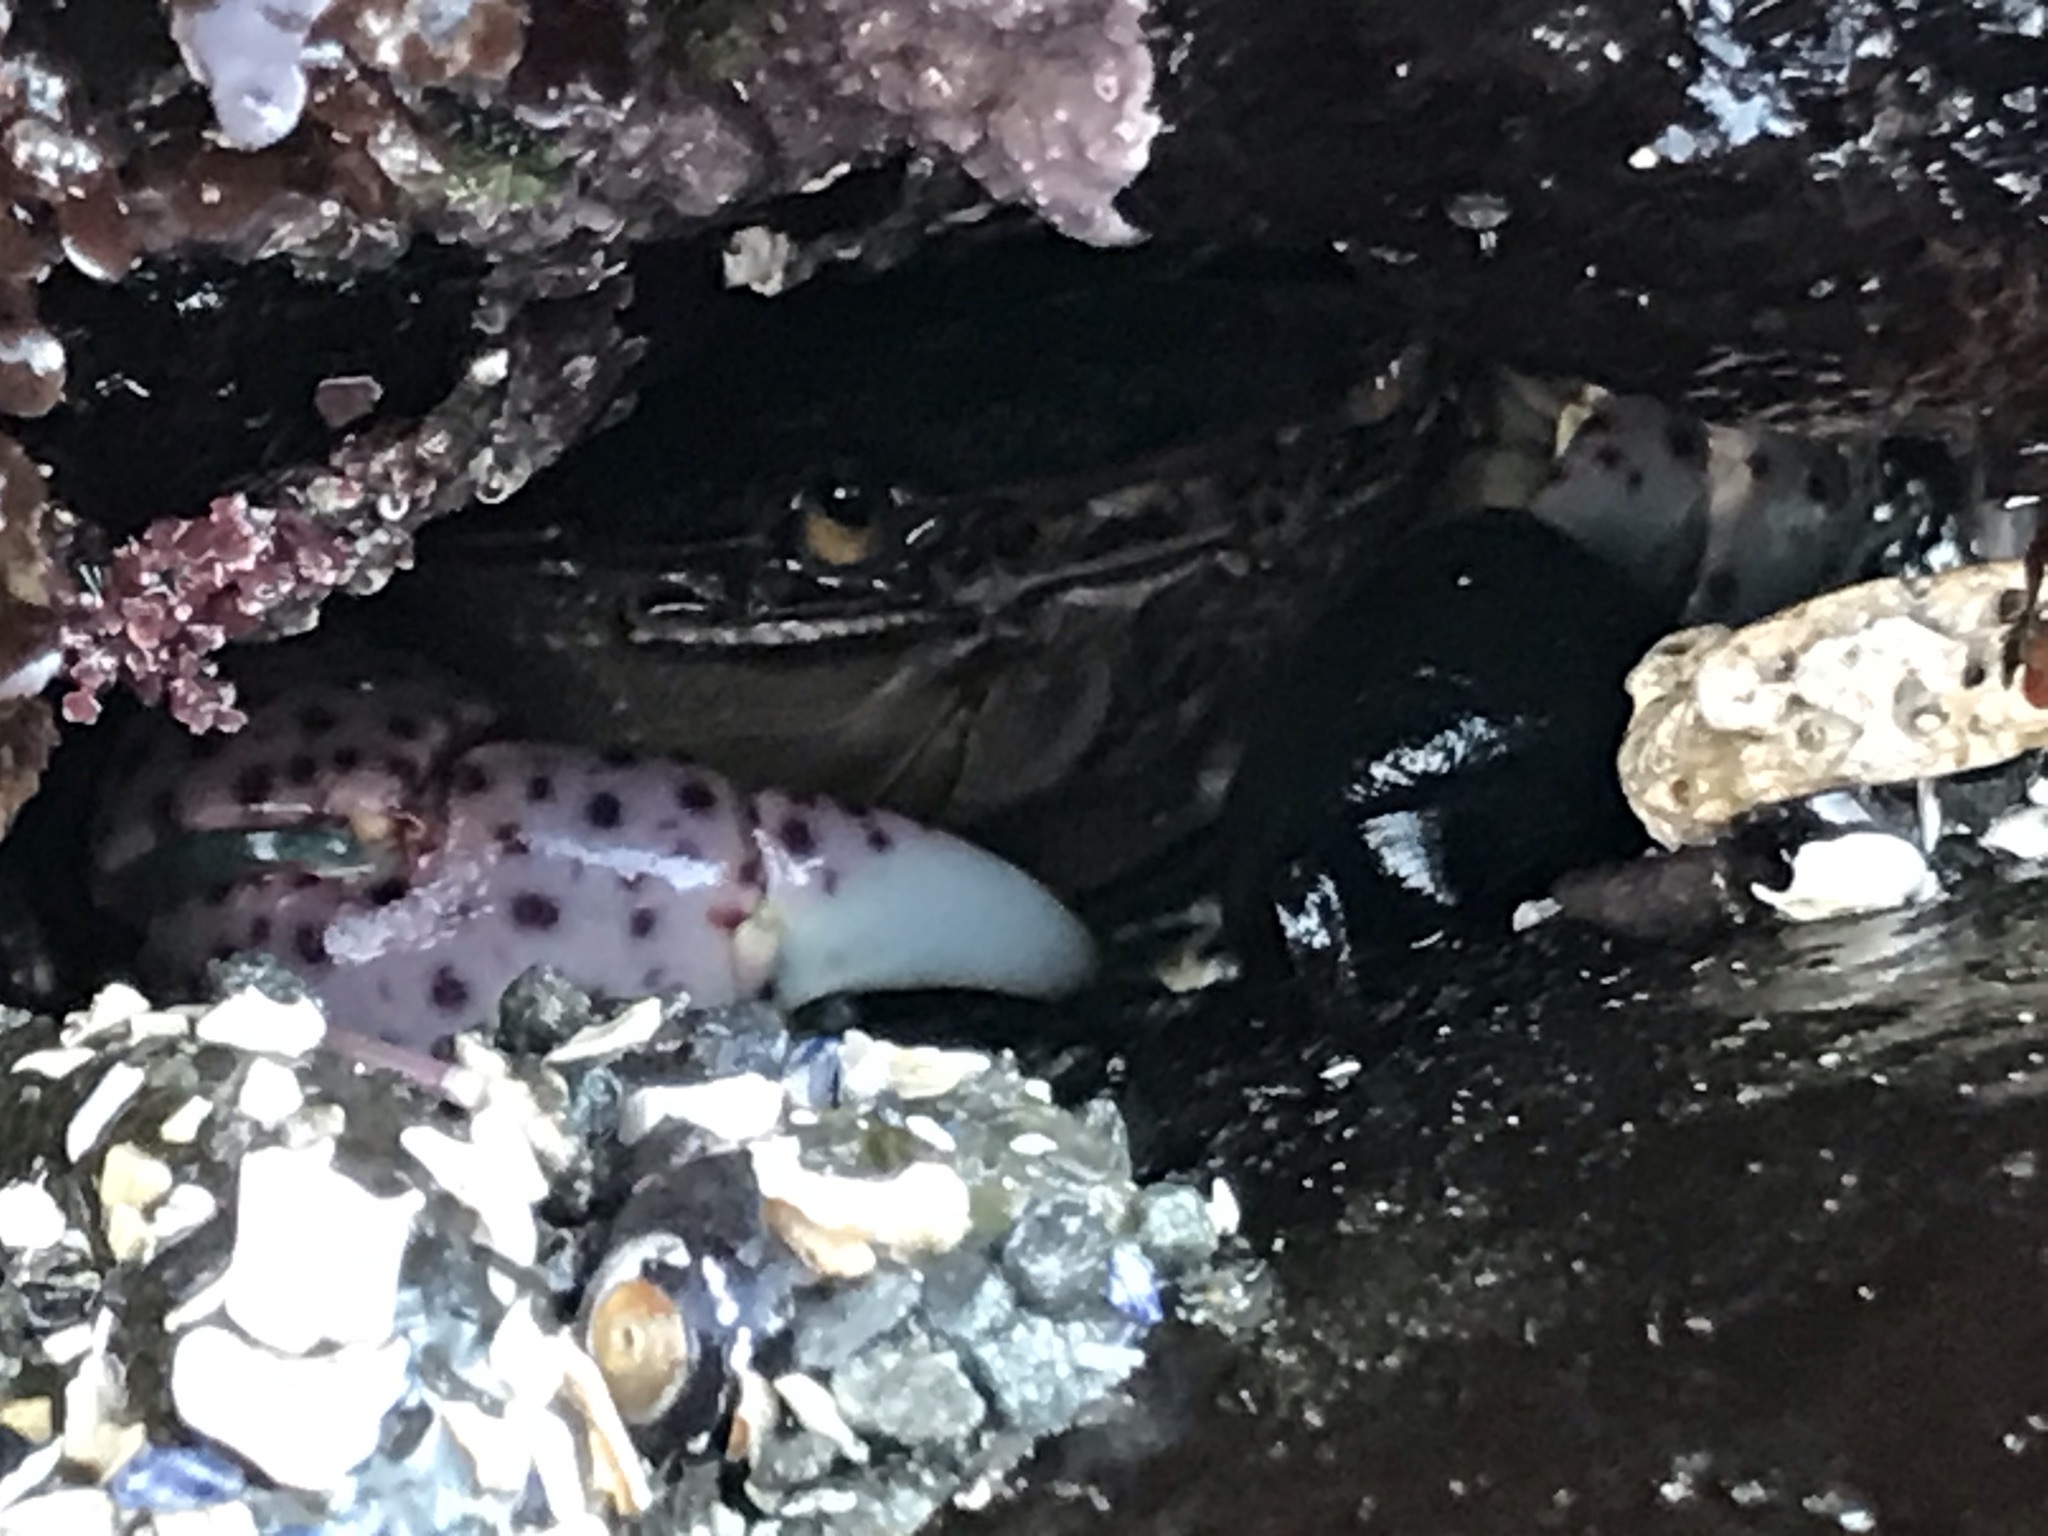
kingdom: Animalia
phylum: Arthropoda
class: Malacostraca
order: Decapoda
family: Varunidae
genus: Hemigrapsus
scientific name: Hemigrapsus nudus
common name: Purple shore crab
